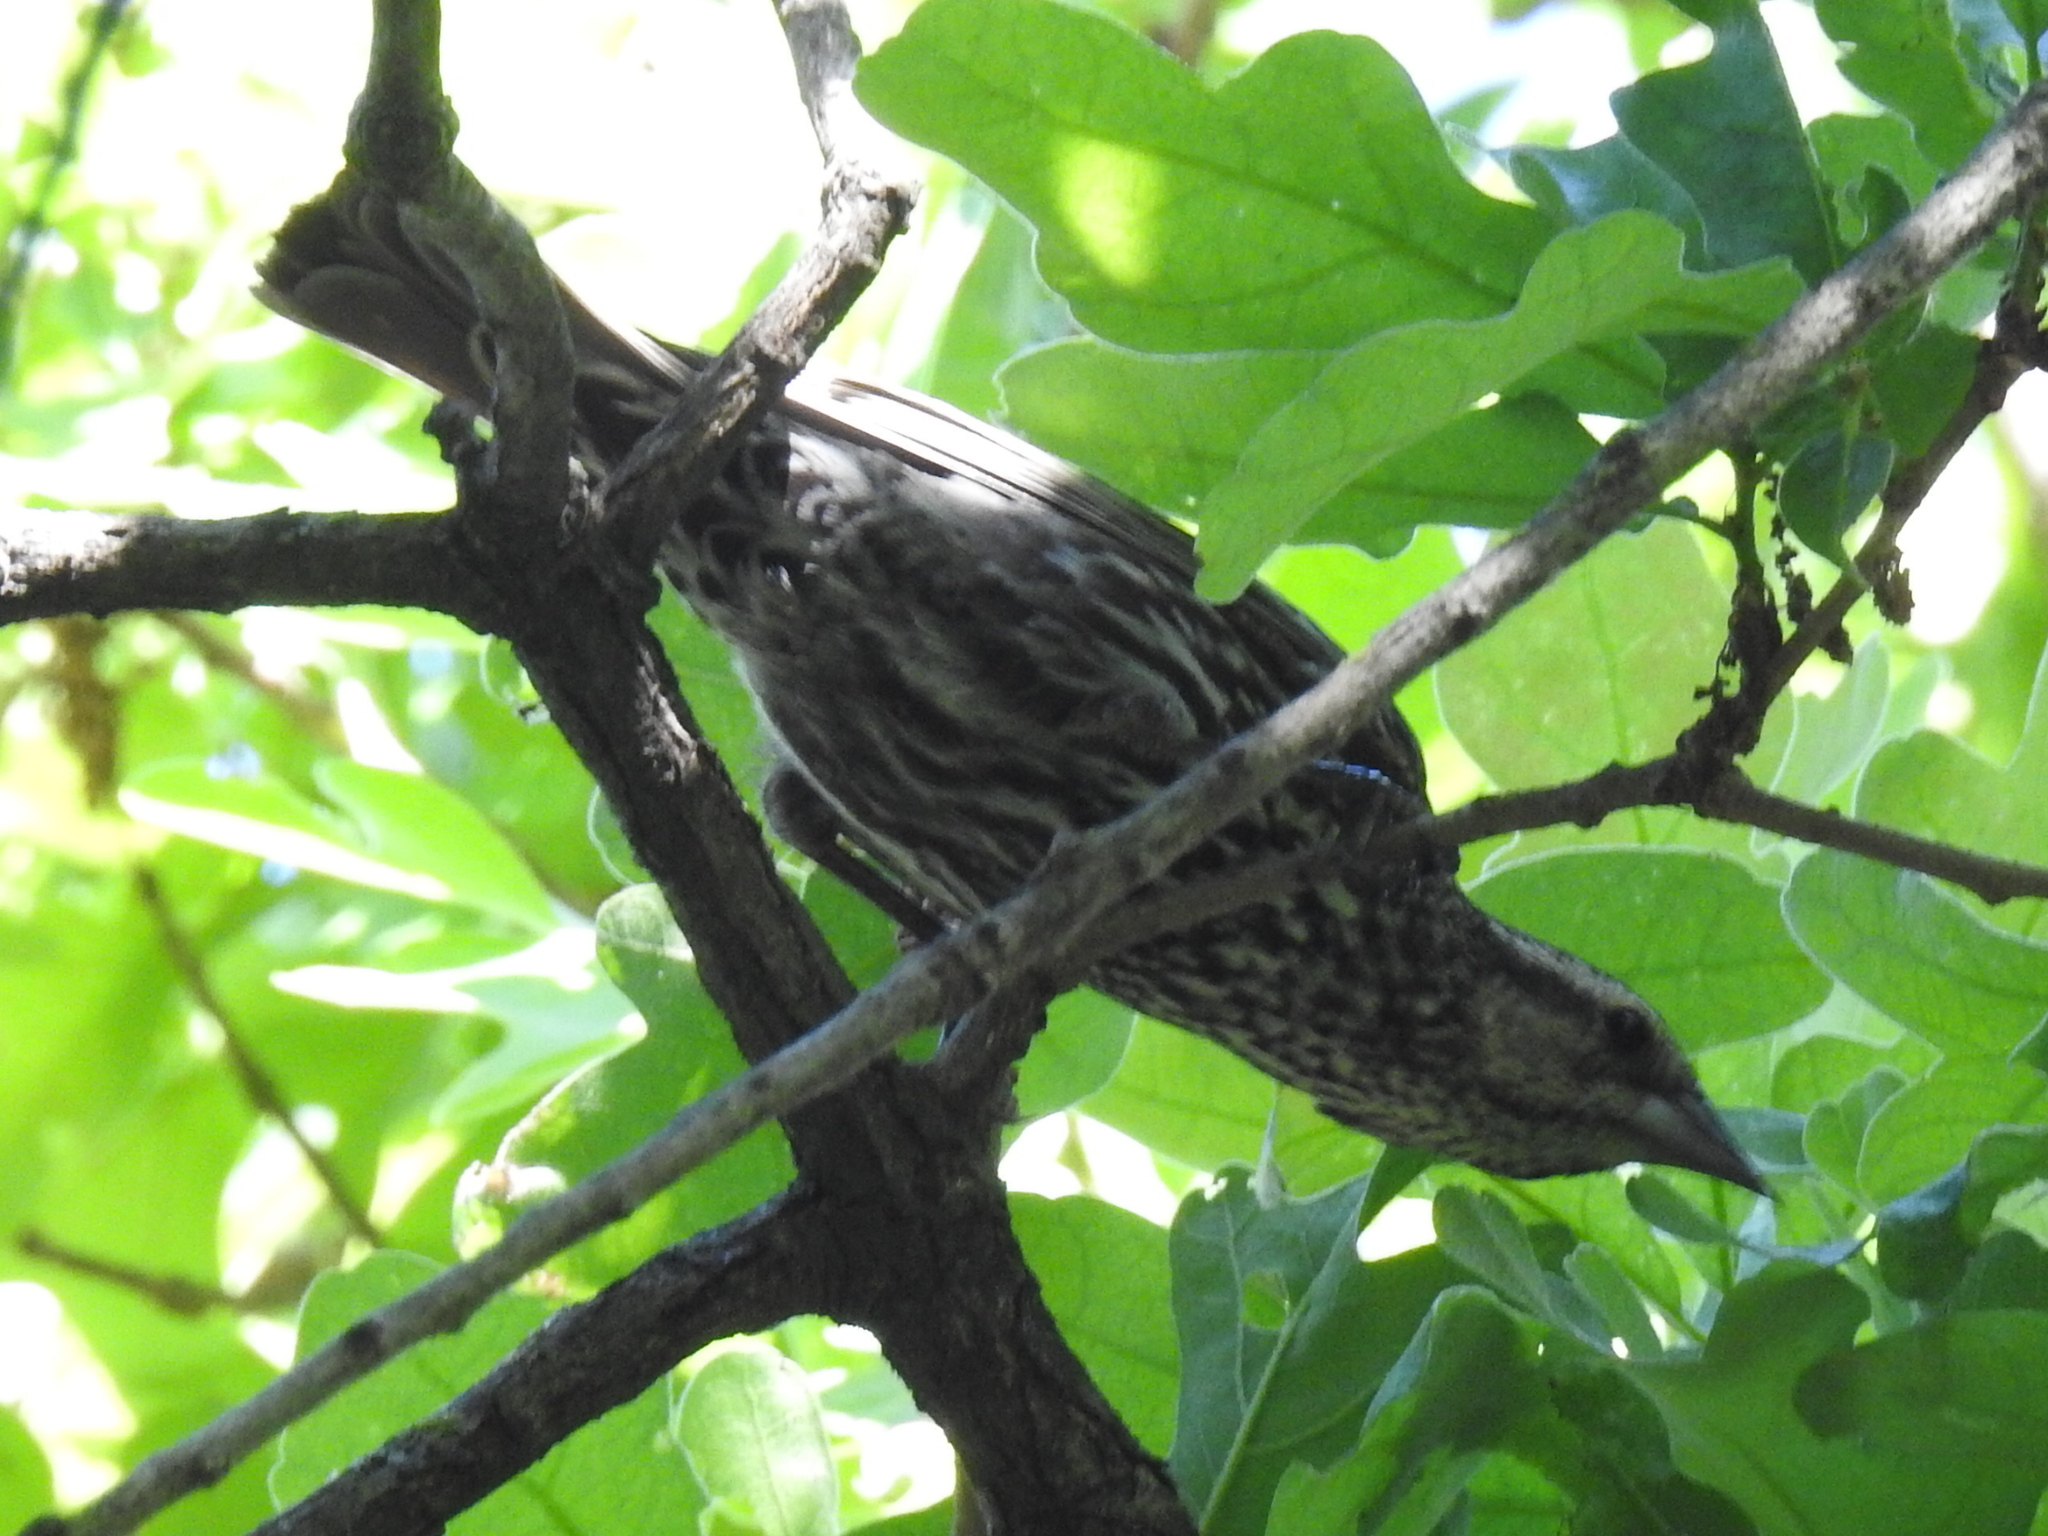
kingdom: Animalia
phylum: Chordata
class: Aves
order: Passeriformes
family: Icteridae
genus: Agelaius
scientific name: Agelaius phoeniceus
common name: Red-winged blackbird
